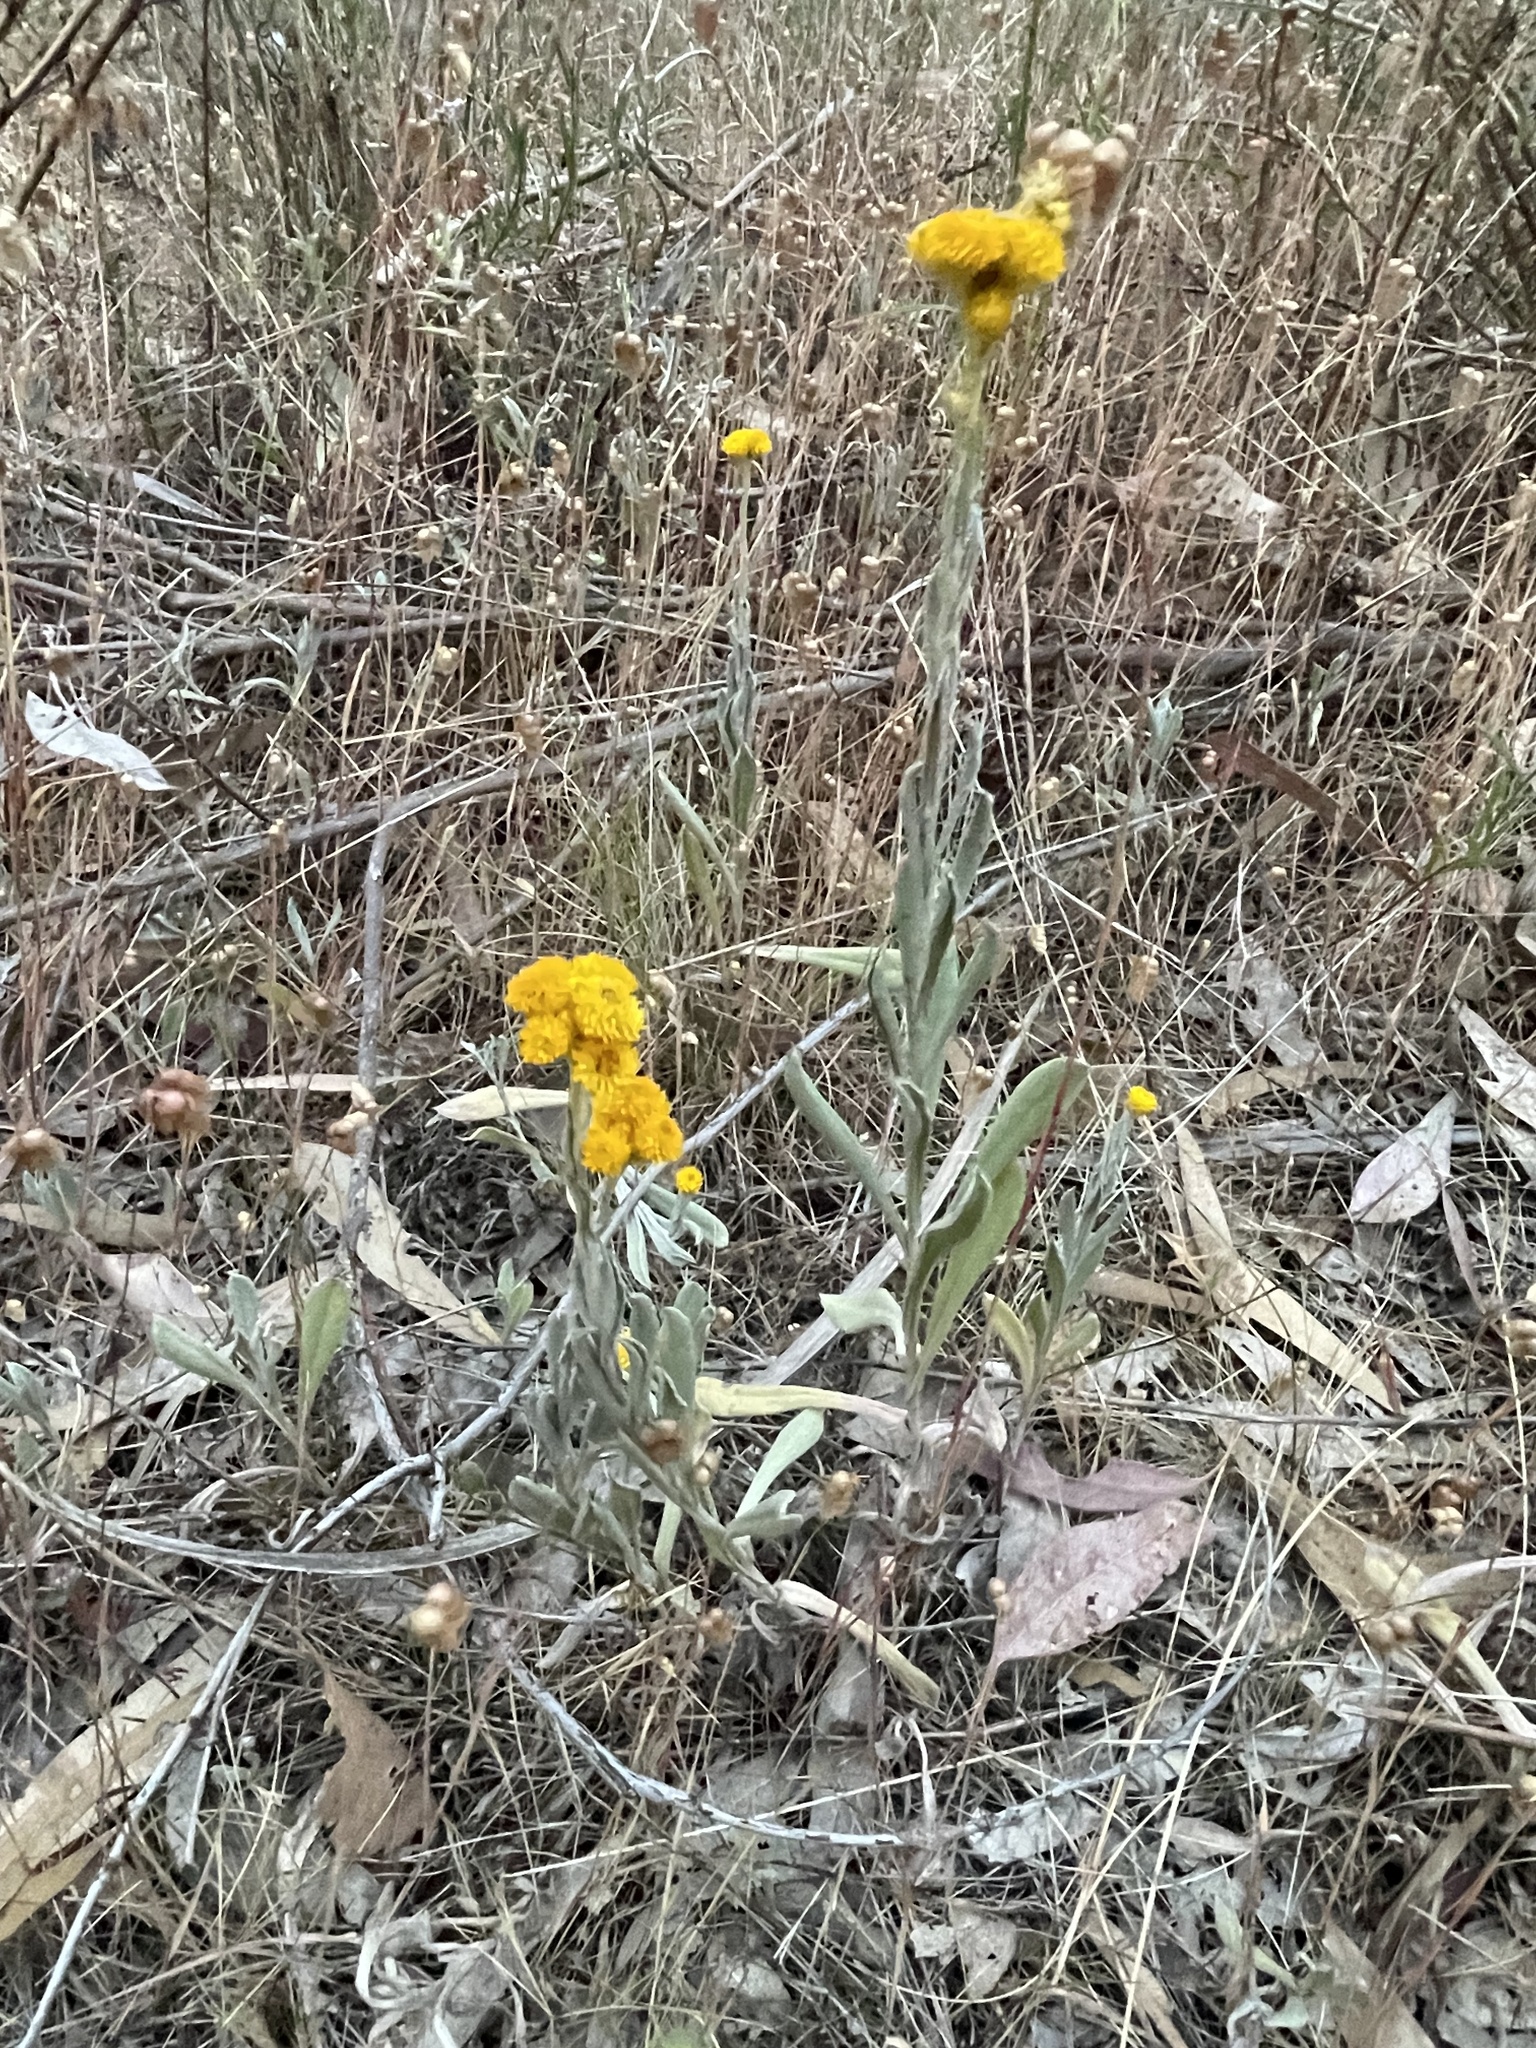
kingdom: Plantae
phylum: Tracheophyta
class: Magnoliopsida
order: Asterales
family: Asteraceae
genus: Chrysocephalum
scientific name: Chrysocephalum apiculatum
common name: Common everlasting
